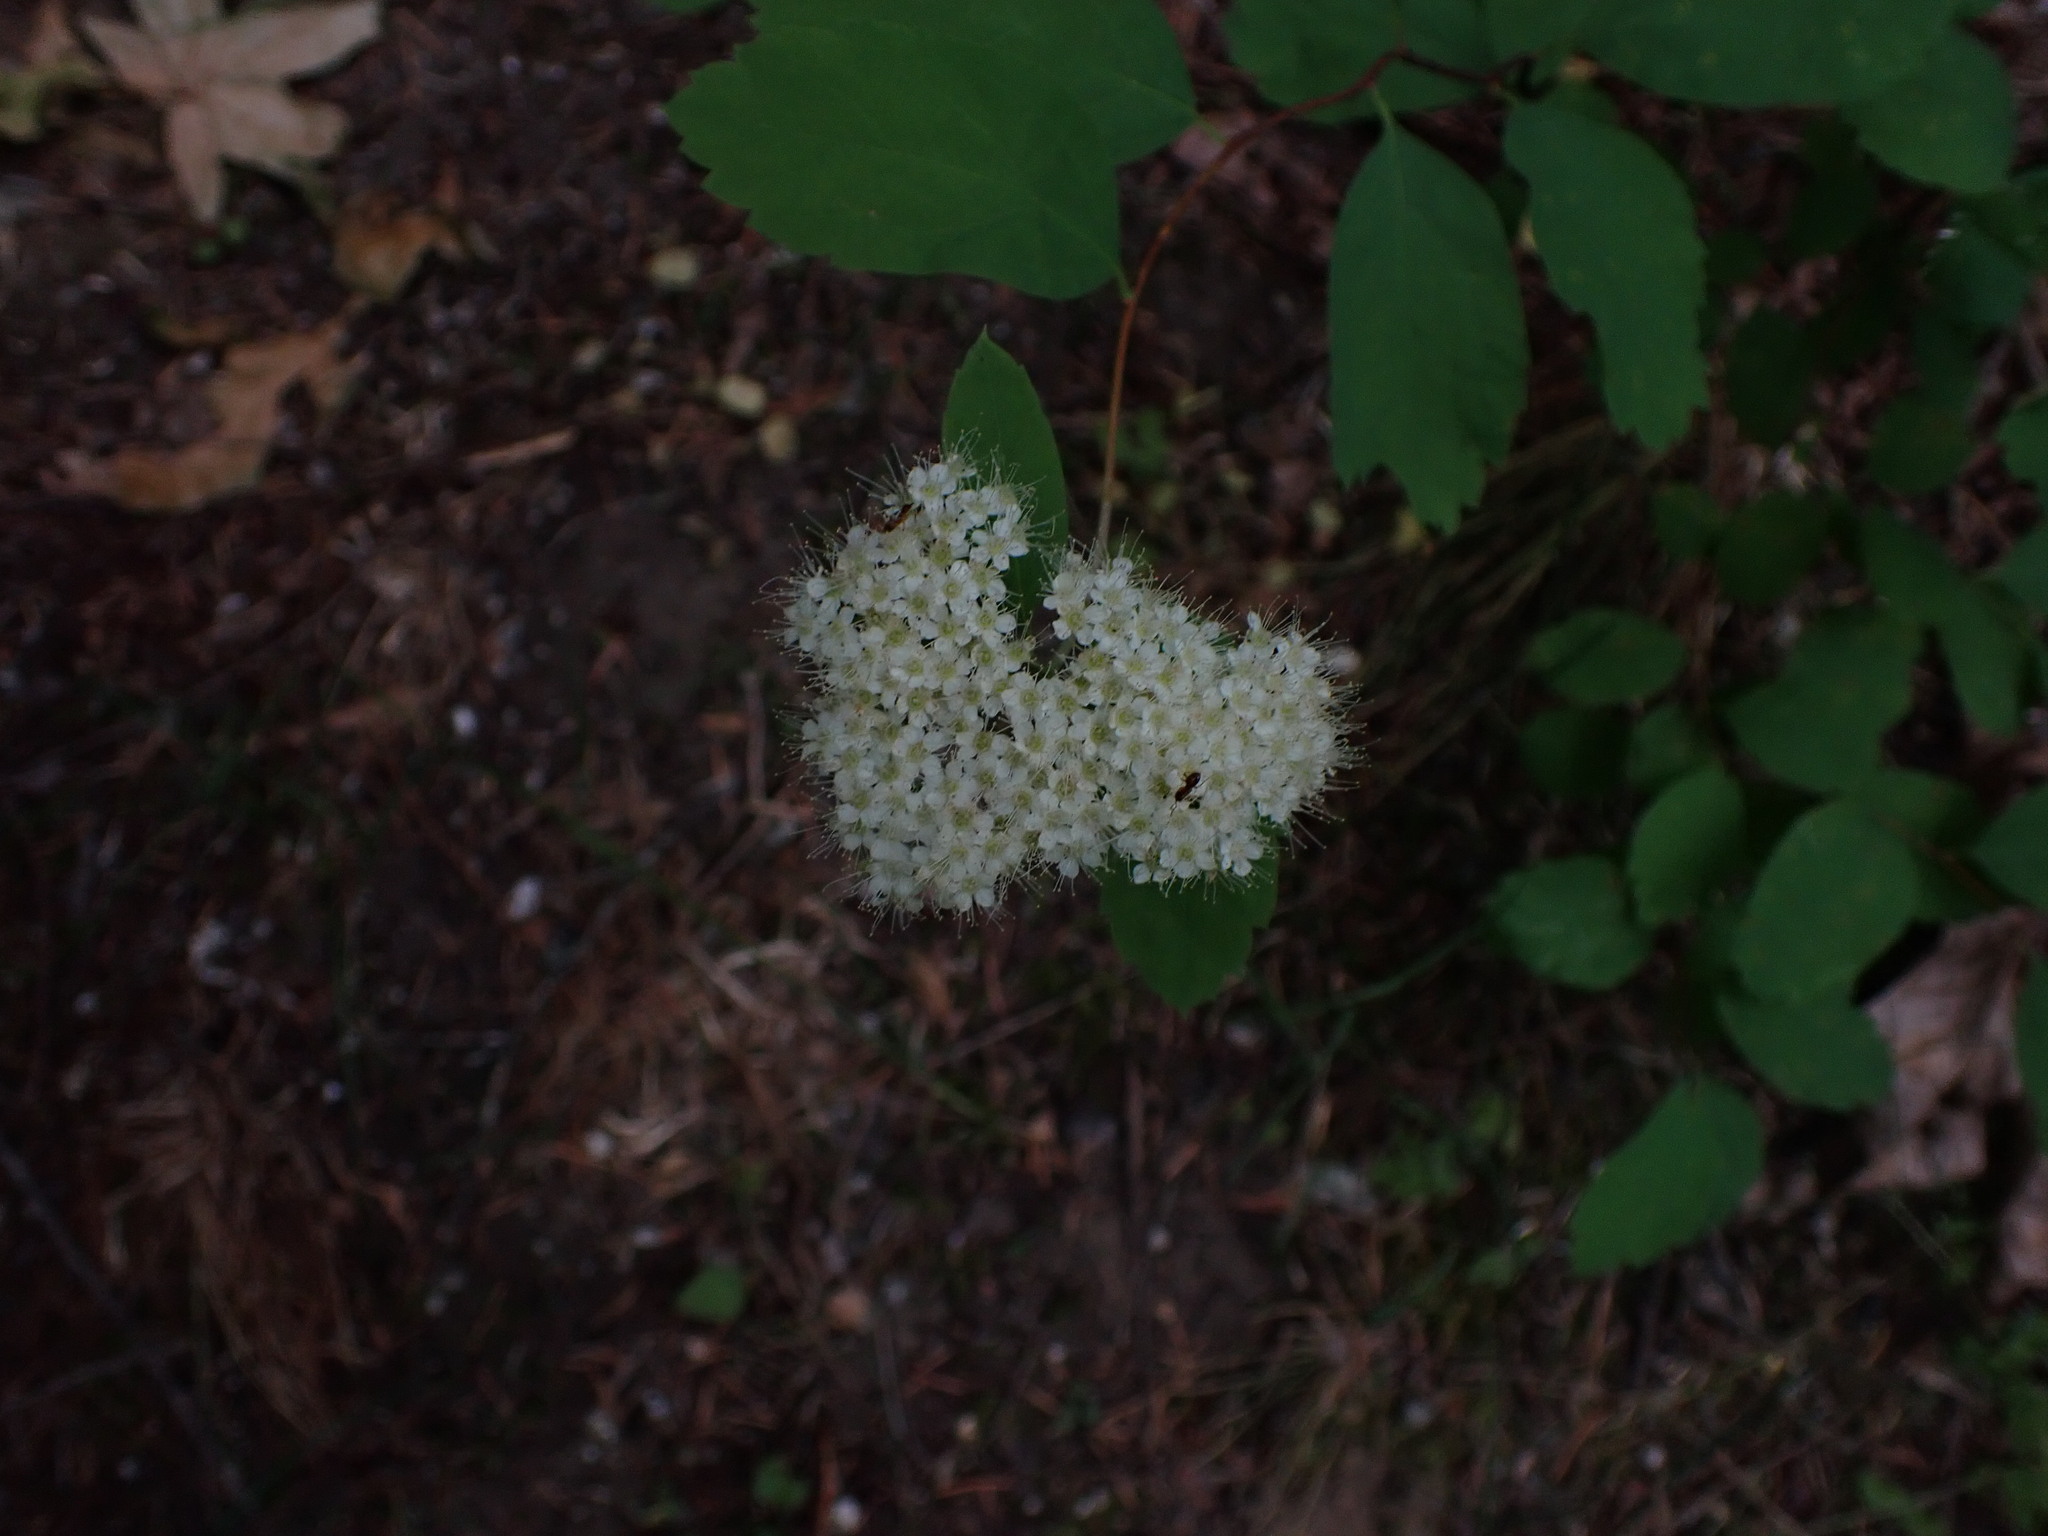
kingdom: Plantae
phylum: Tracheophyta
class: Magnoliopsida
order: Rosales
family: Rosaceae
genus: Spiraea
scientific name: Spiraea lucida
